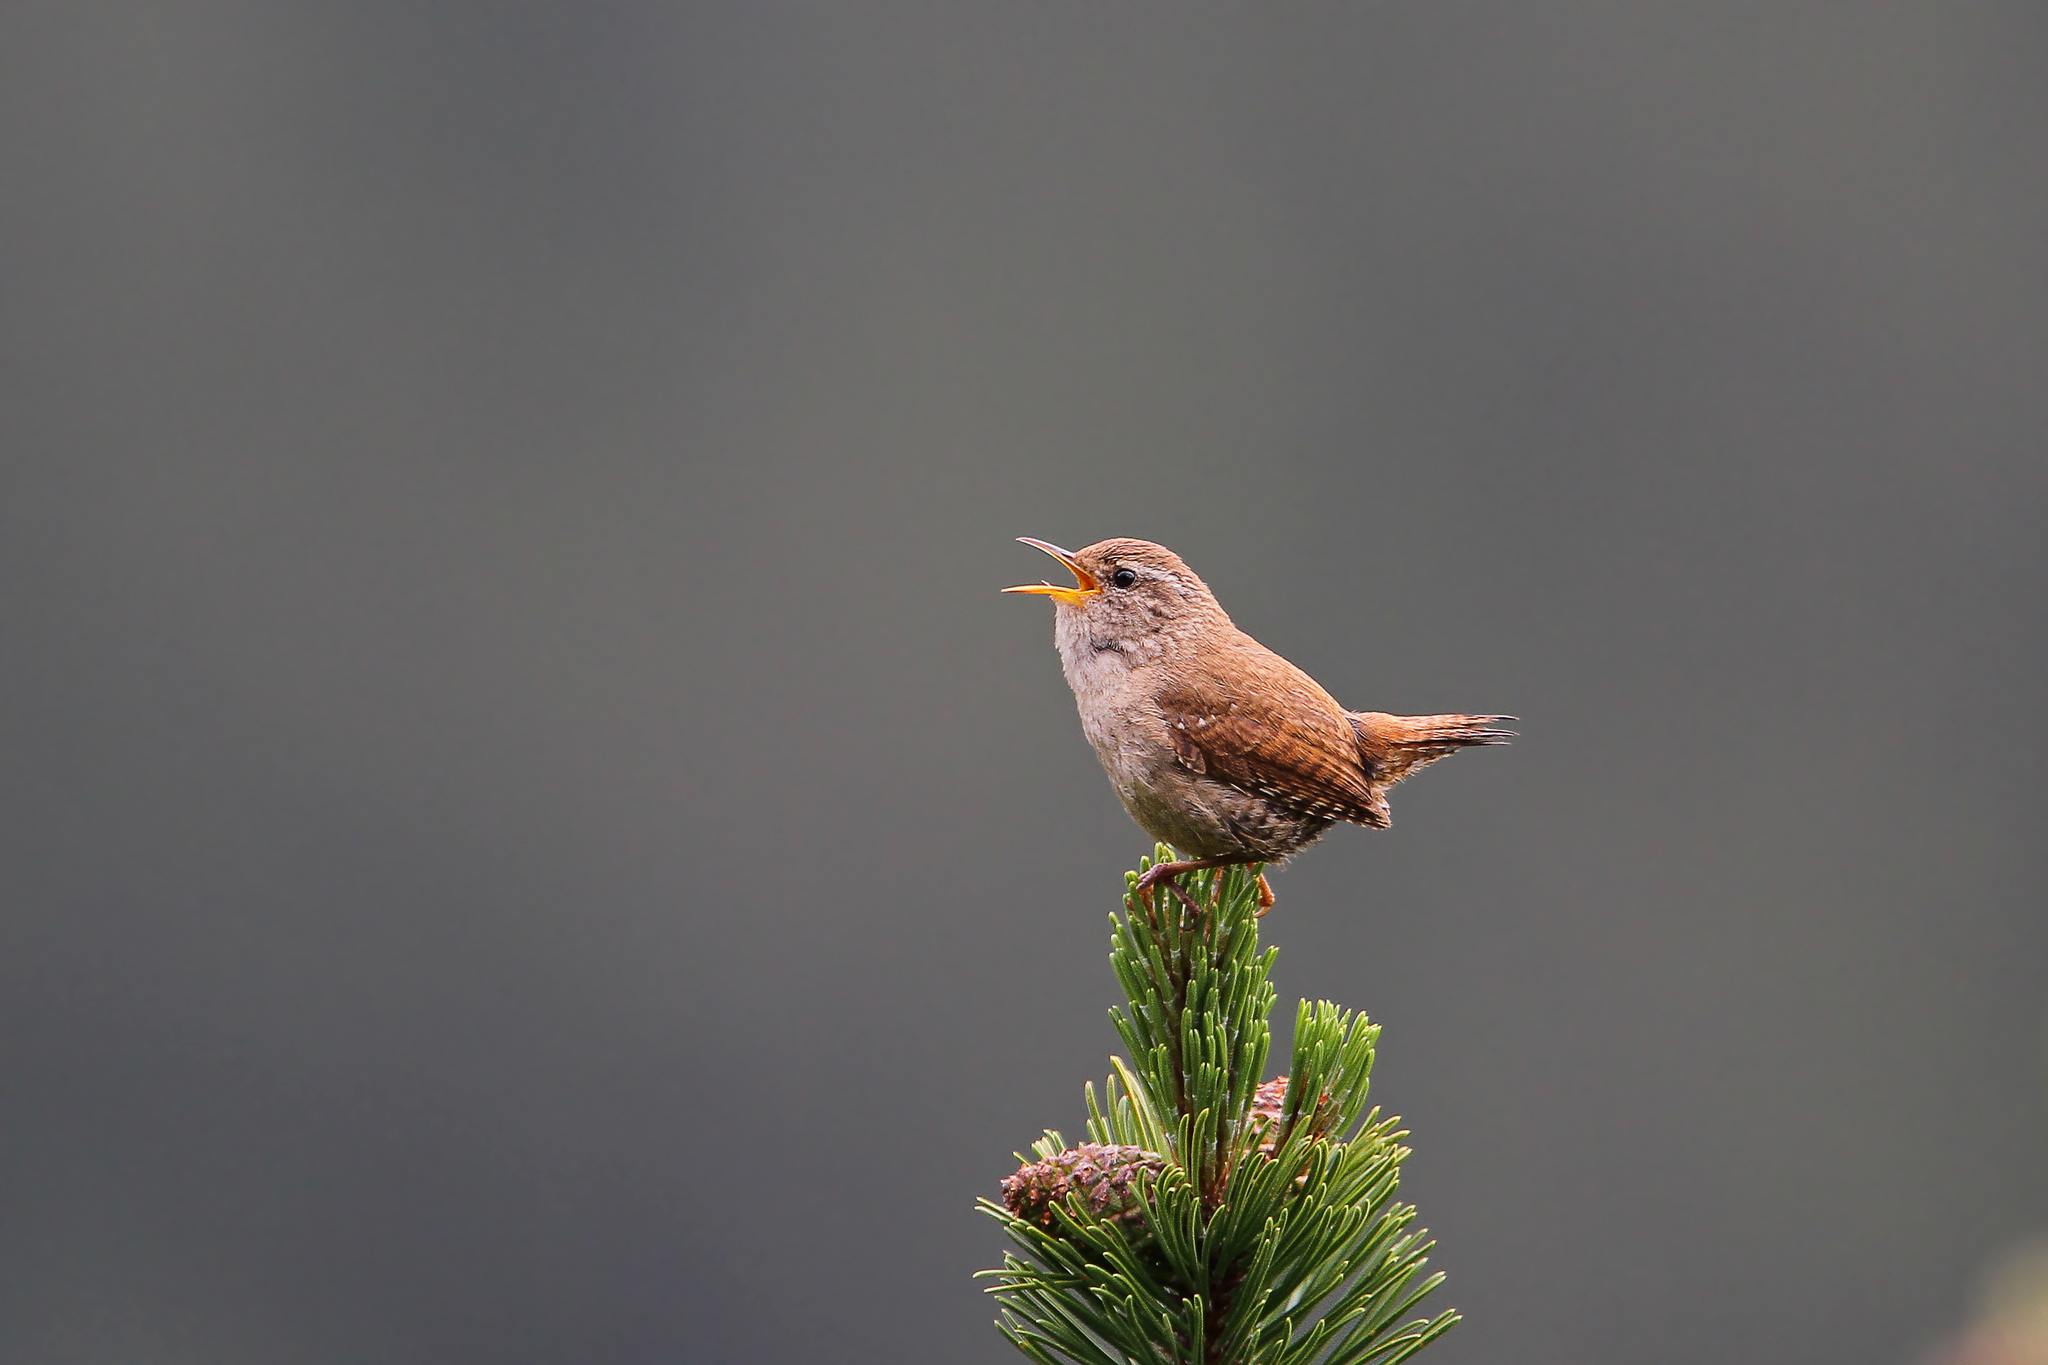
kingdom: Animalia
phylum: Chordata
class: Aves
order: Passeriformes
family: Troglodytidae
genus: Troglodytes
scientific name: Troglodytes troglodytes
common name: Eurasian wren
